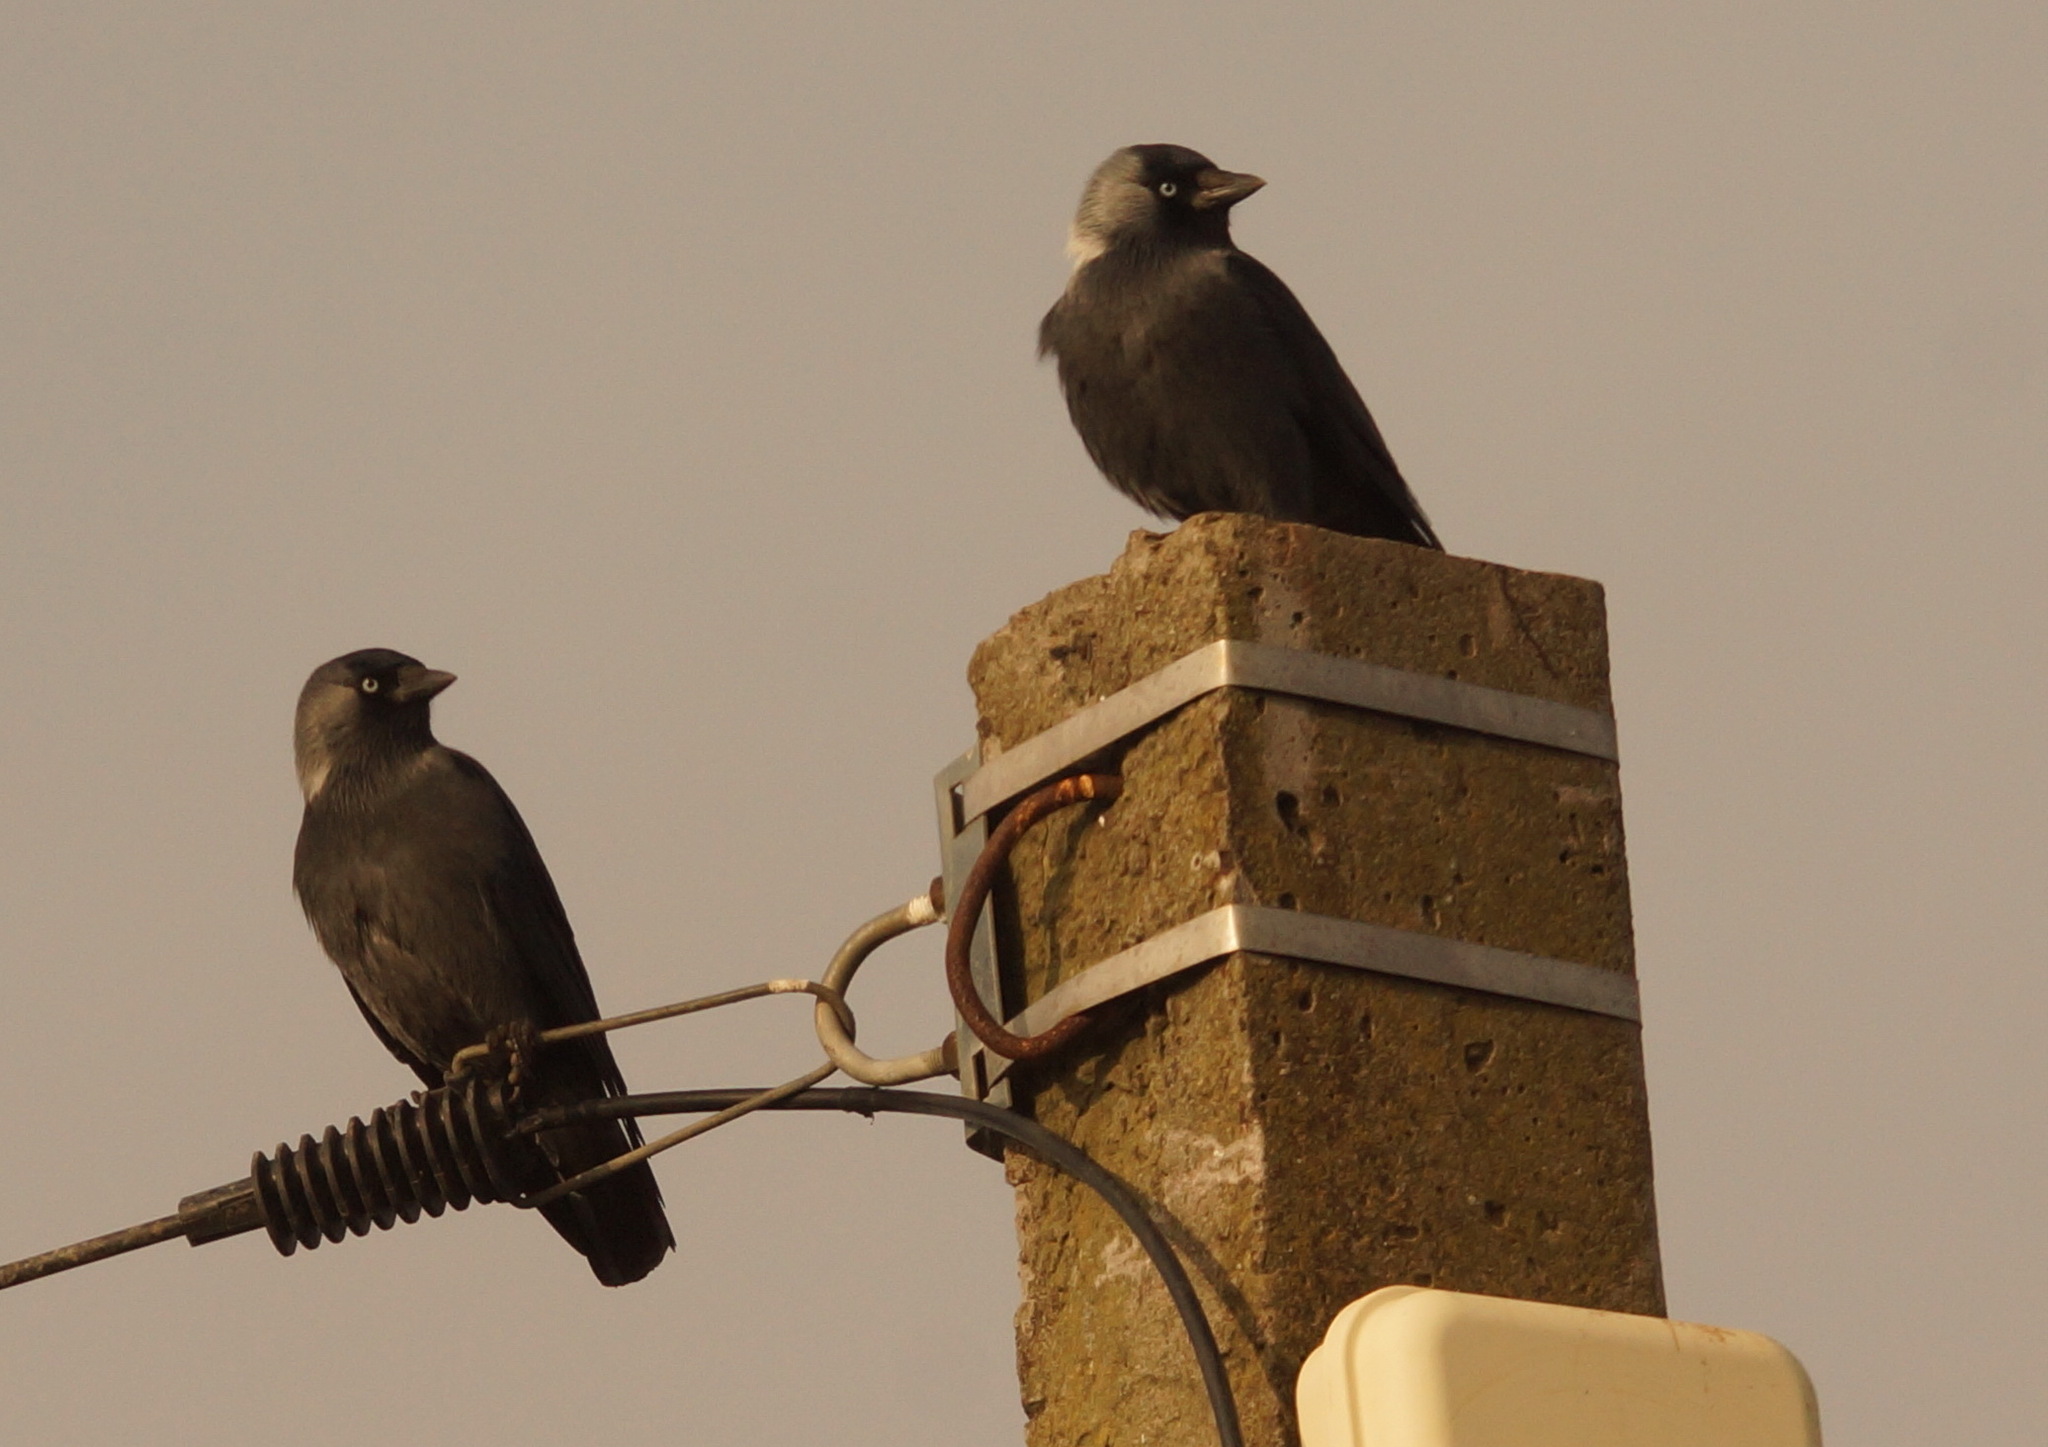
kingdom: Animalia
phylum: Chordata
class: Aves
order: Passeriformes
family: Corvidae
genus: Coloeus
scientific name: Coloeus monedula
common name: Western jackdaw
